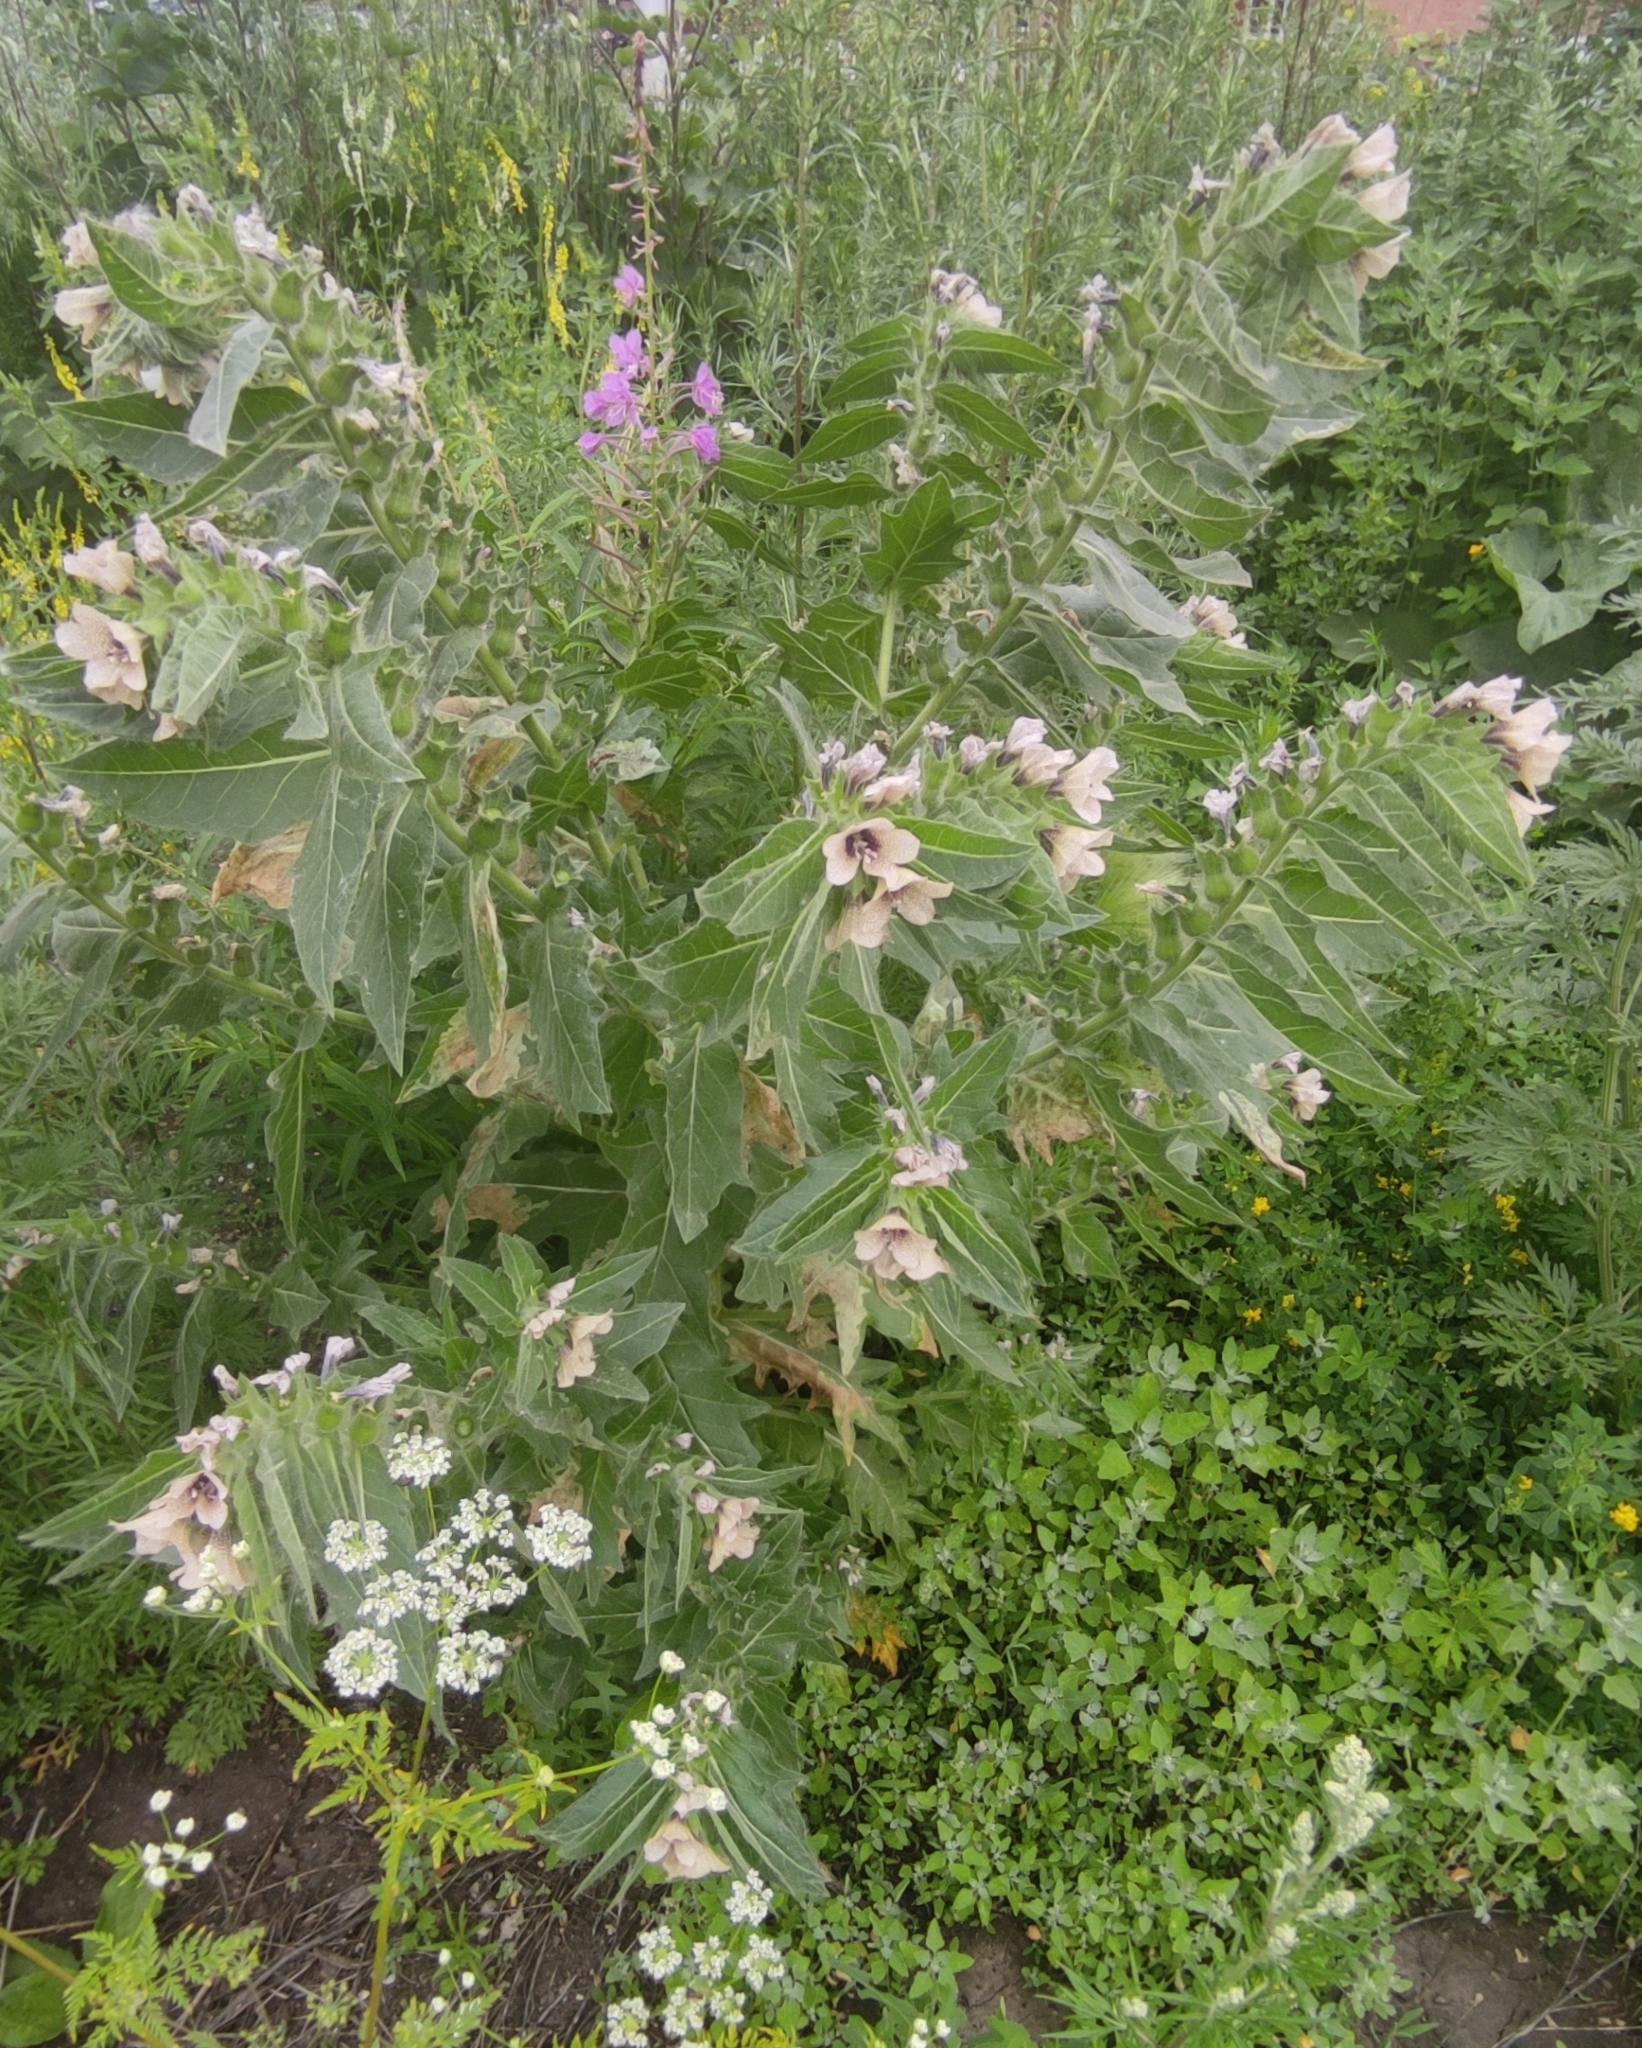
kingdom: Plantae
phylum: Tracheophyta
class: Magnoliopsida
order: Solanales
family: Solanaceae
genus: Hyoscyamus
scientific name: Hyoscyamus niger
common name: Henbane
